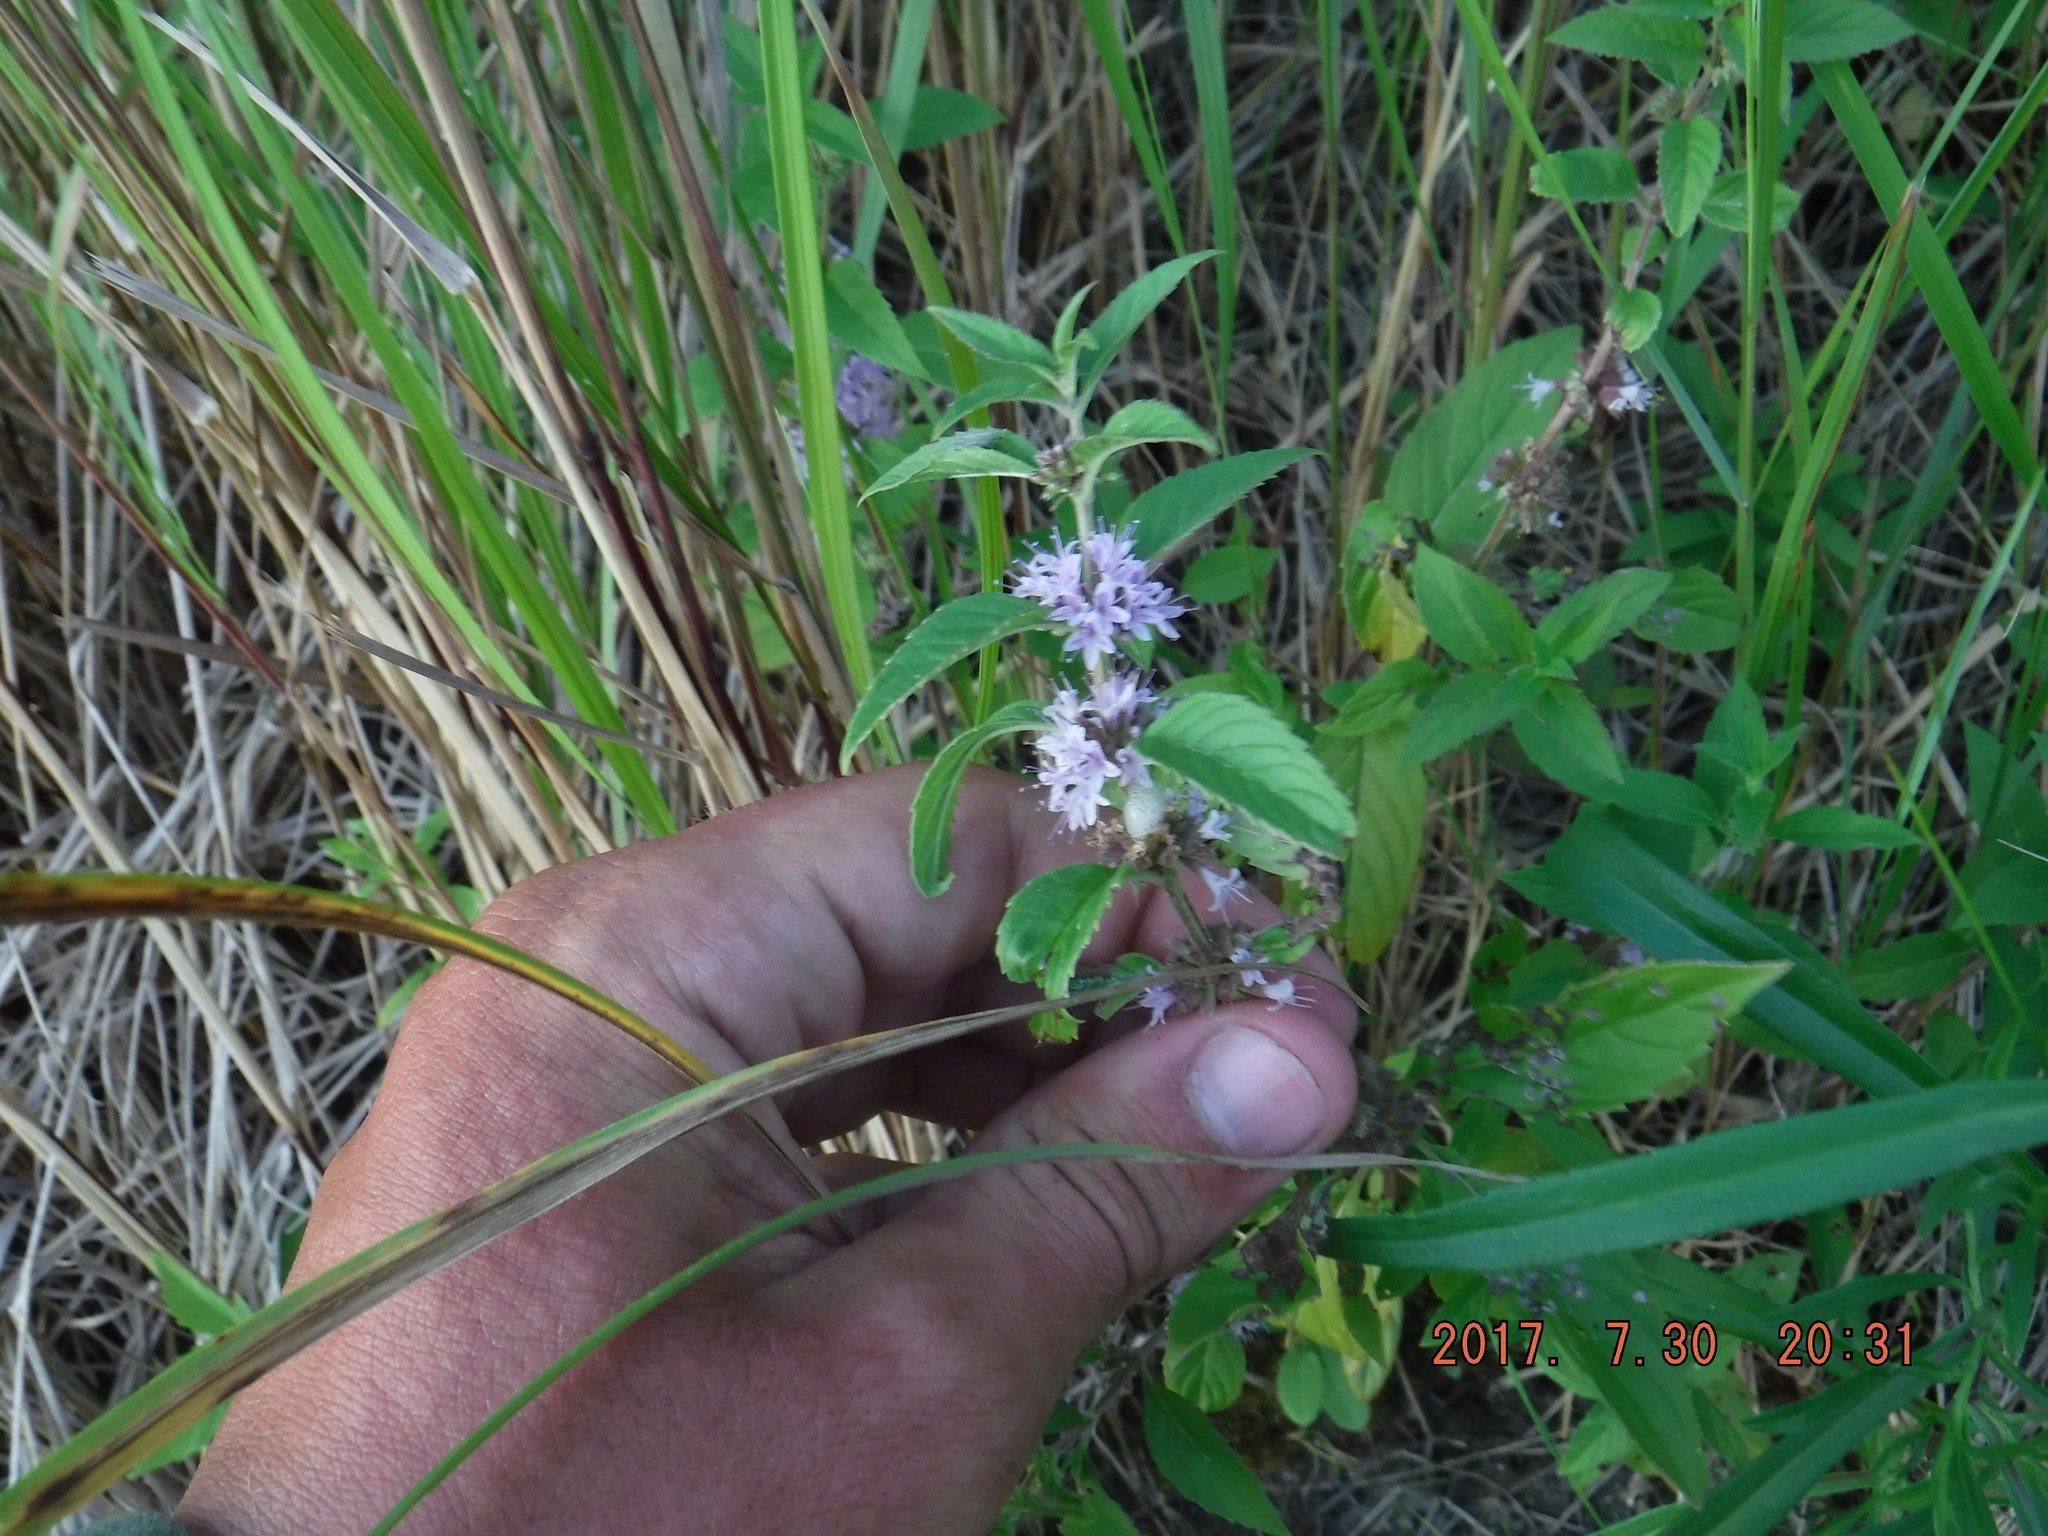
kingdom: Plantae
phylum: Tracheophyta
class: Magnoliopsida
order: Lamiales
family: Lamiaceae
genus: Mentha
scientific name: Mentha canadensis
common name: American corn mint
